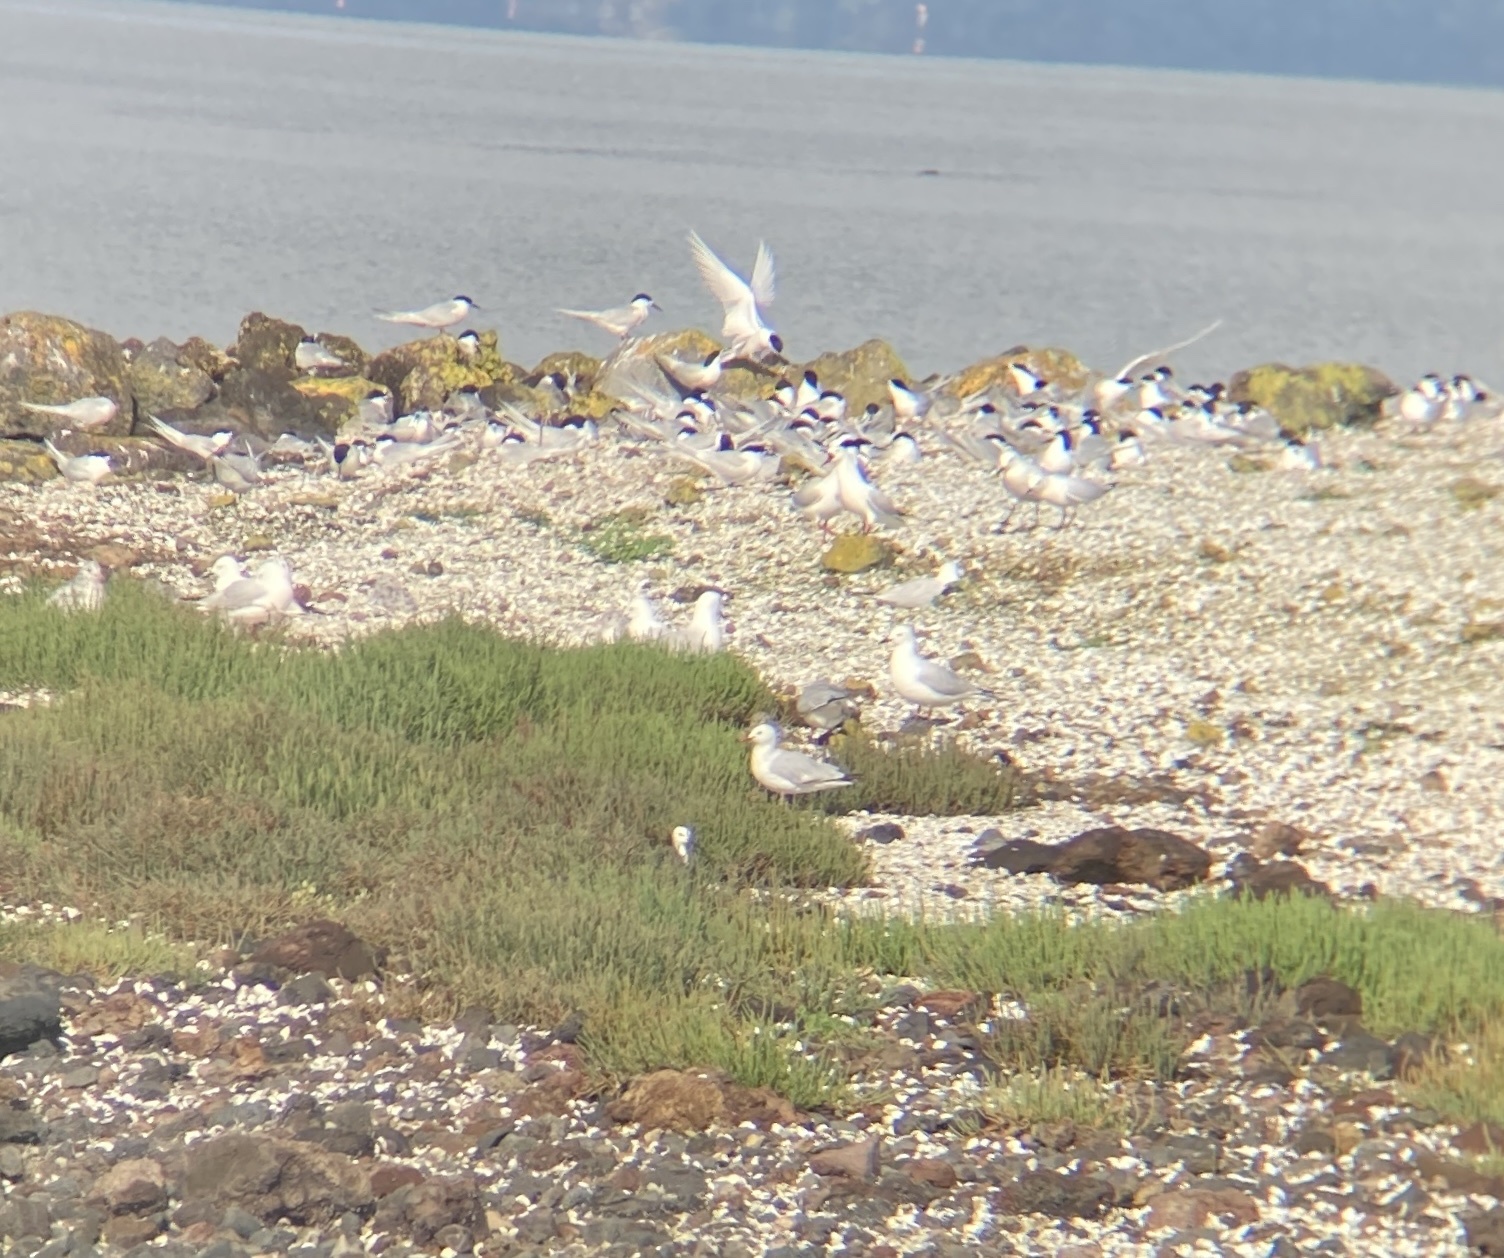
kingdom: Animalia
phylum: Chordata
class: Aves
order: Charadriiformes
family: Laridae
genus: Sterna
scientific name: Sterna striata
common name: White-fronted tern
